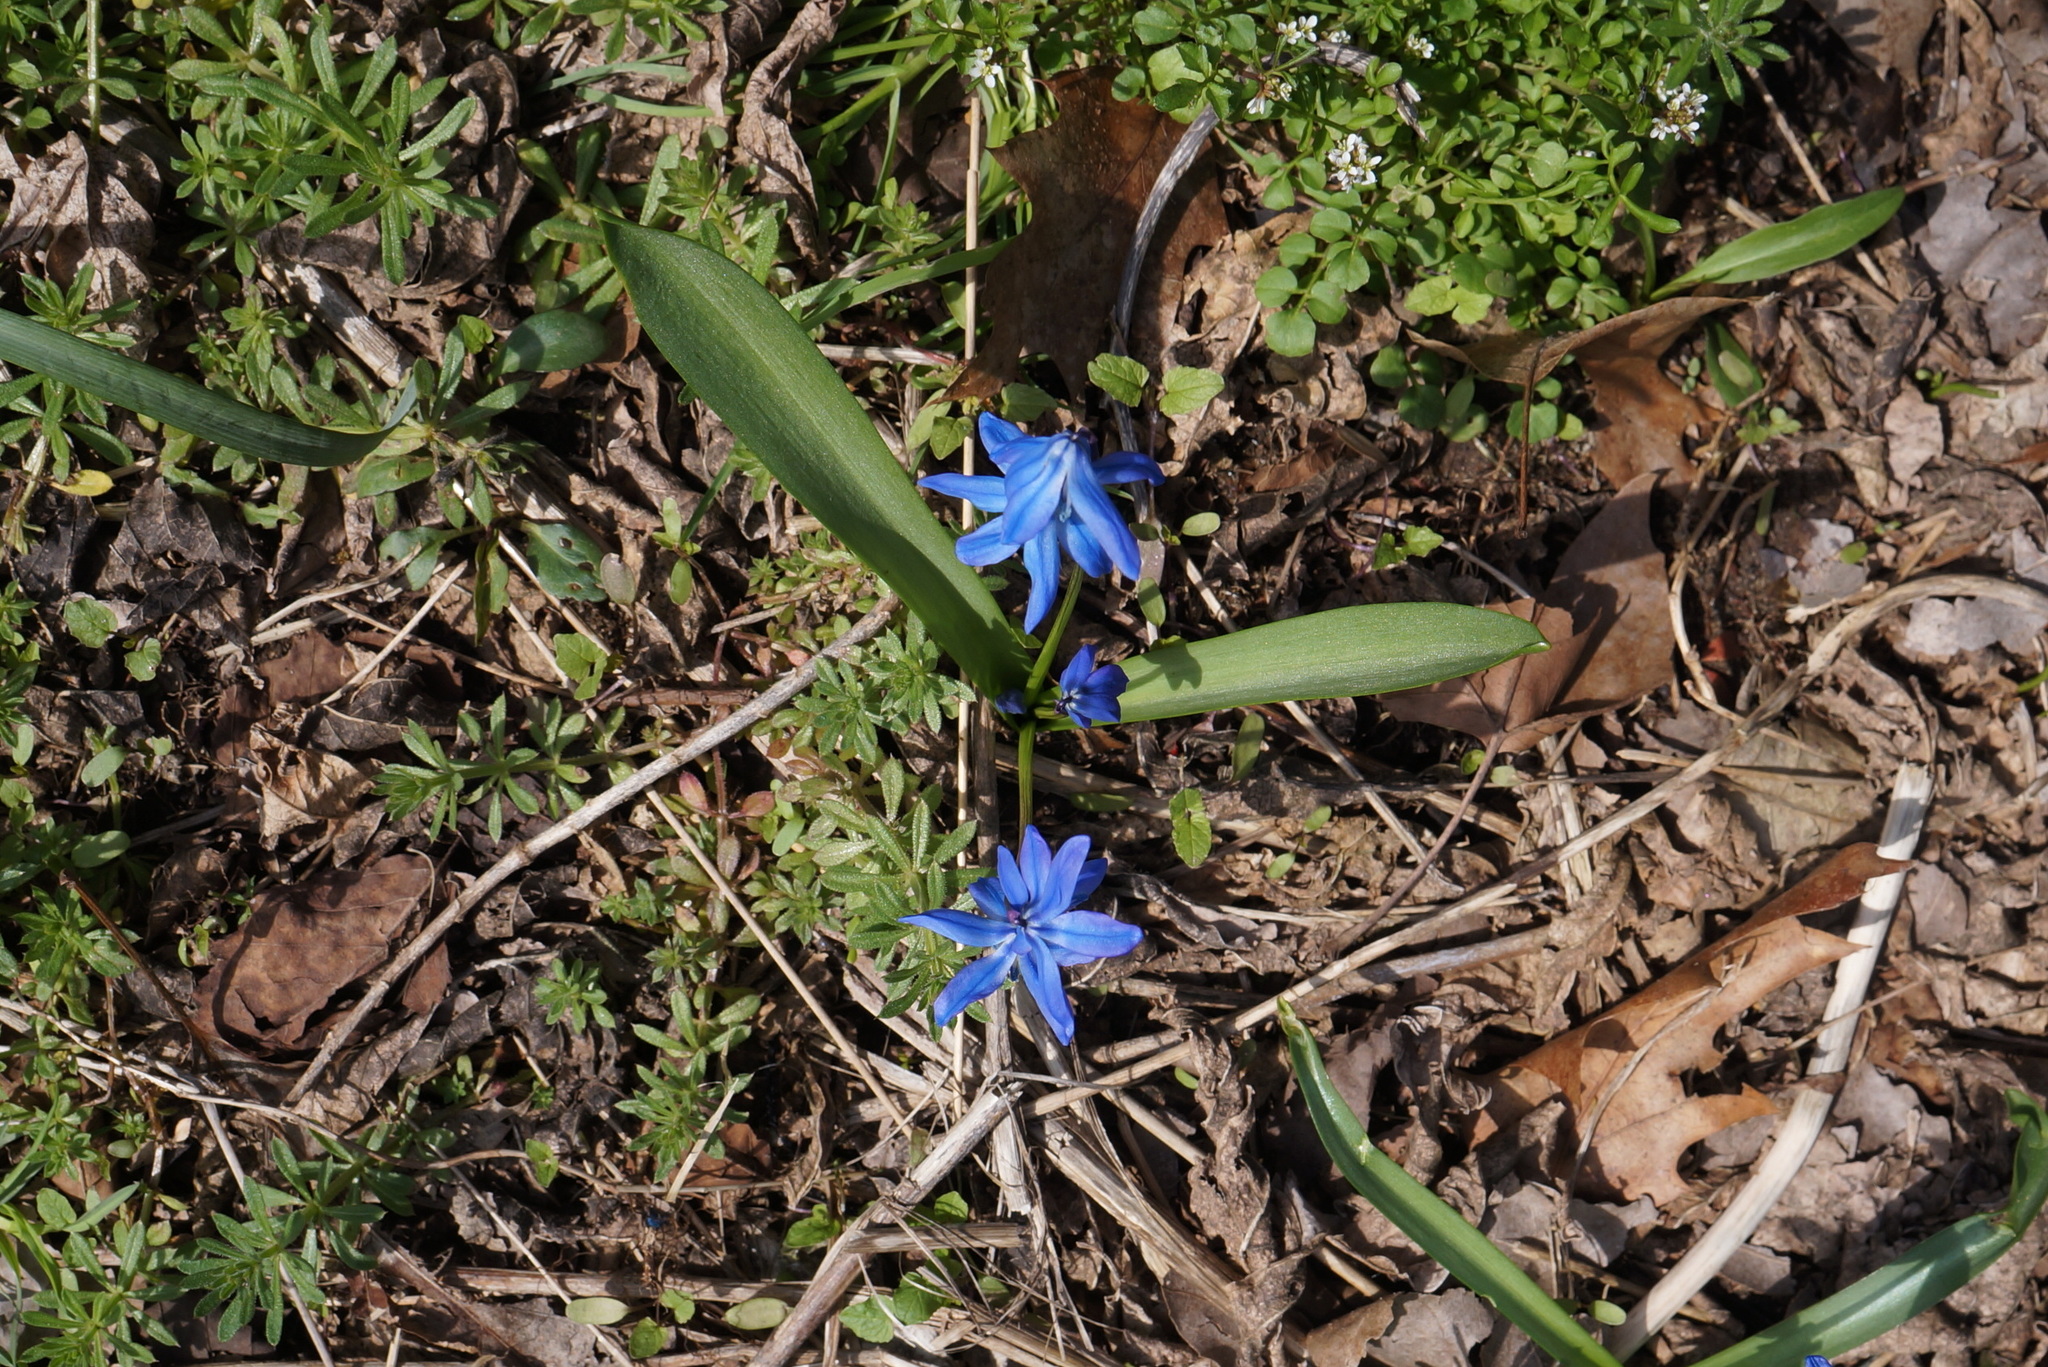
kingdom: Plantae
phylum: Tracheophyta
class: Liliopsida
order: Asparagales
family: Asparagaceae
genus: Scilla
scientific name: Scilla siberica
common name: Siberian squill
